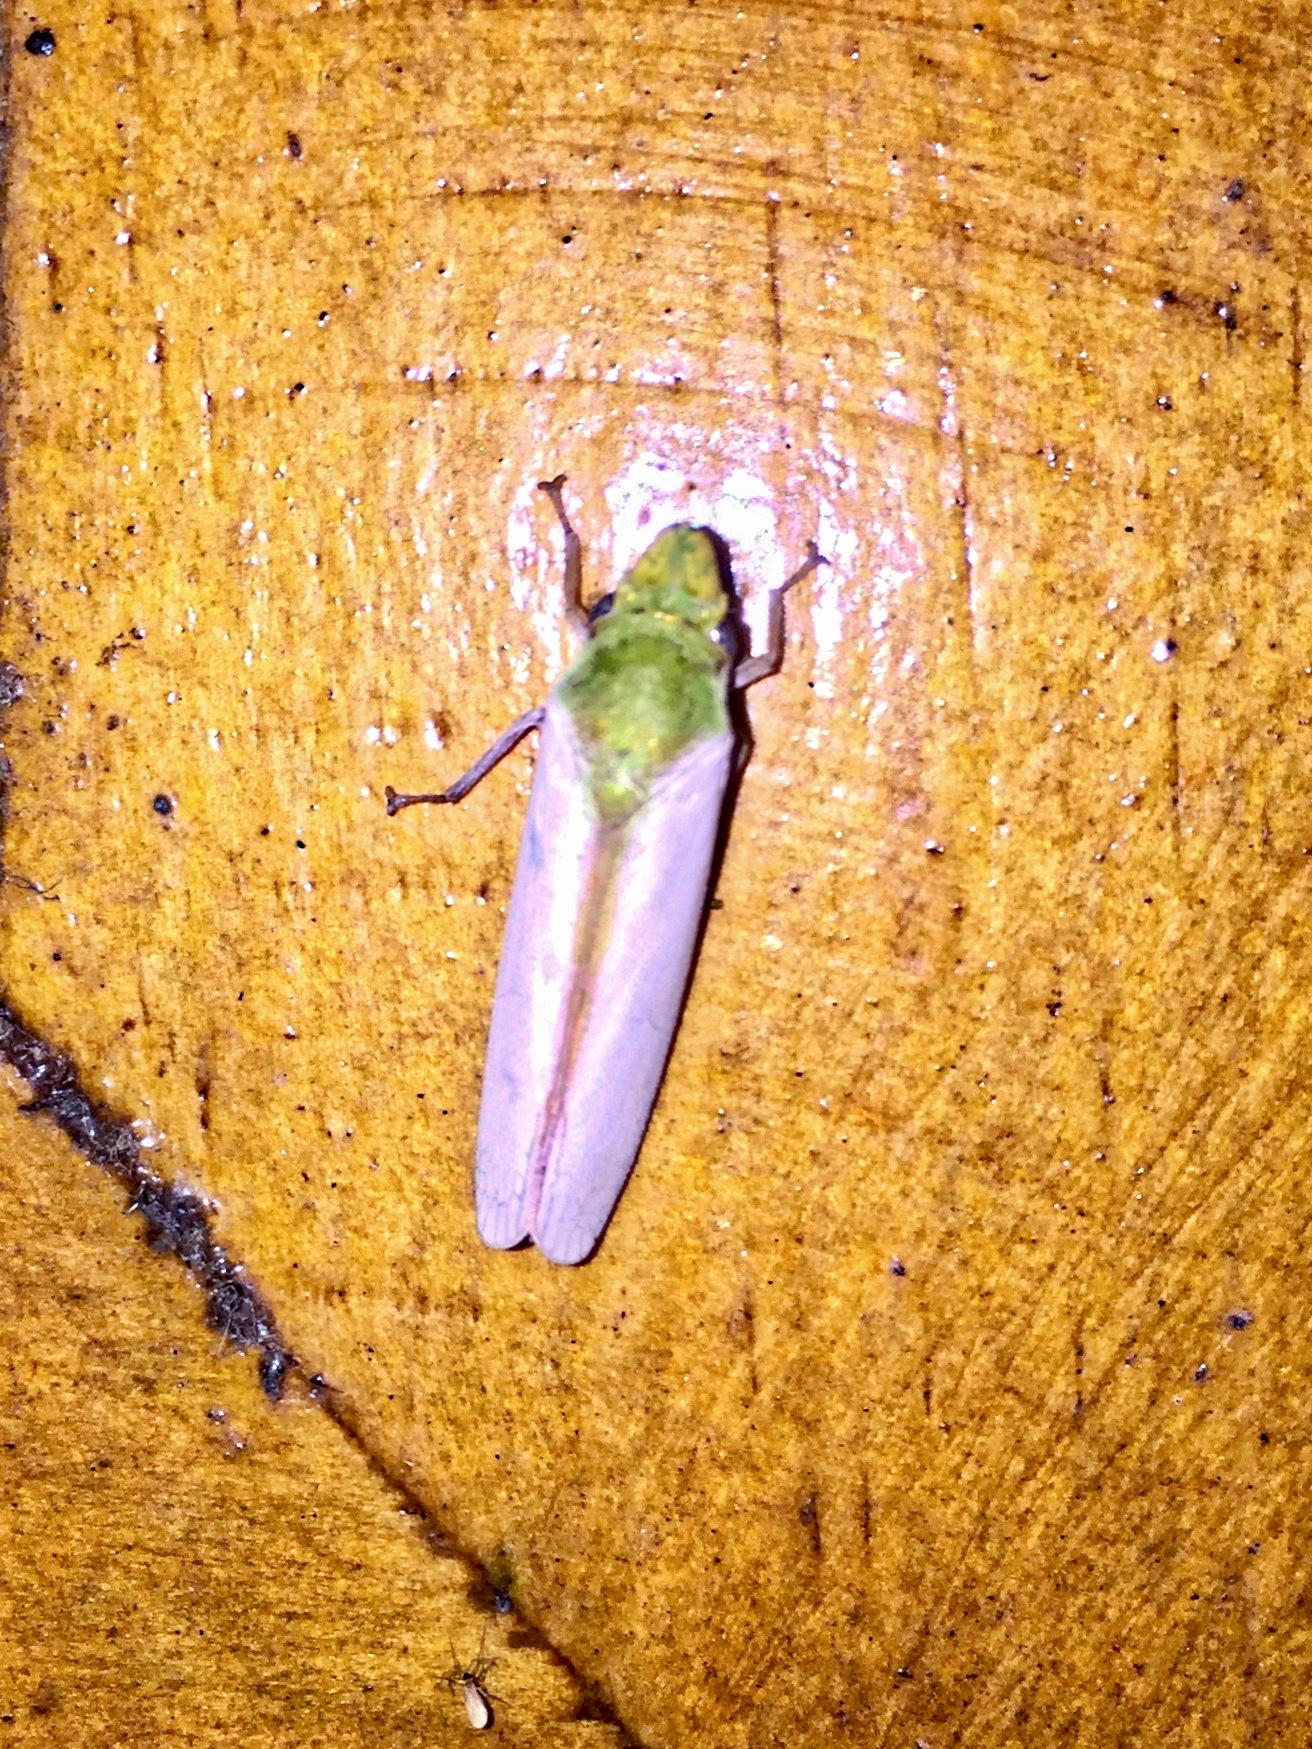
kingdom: Animalia
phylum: Arthropoda
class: Insecta
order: Hemiptera
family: Cicadellidae
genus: Diestostemma
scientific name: Diestostemma blantoni
